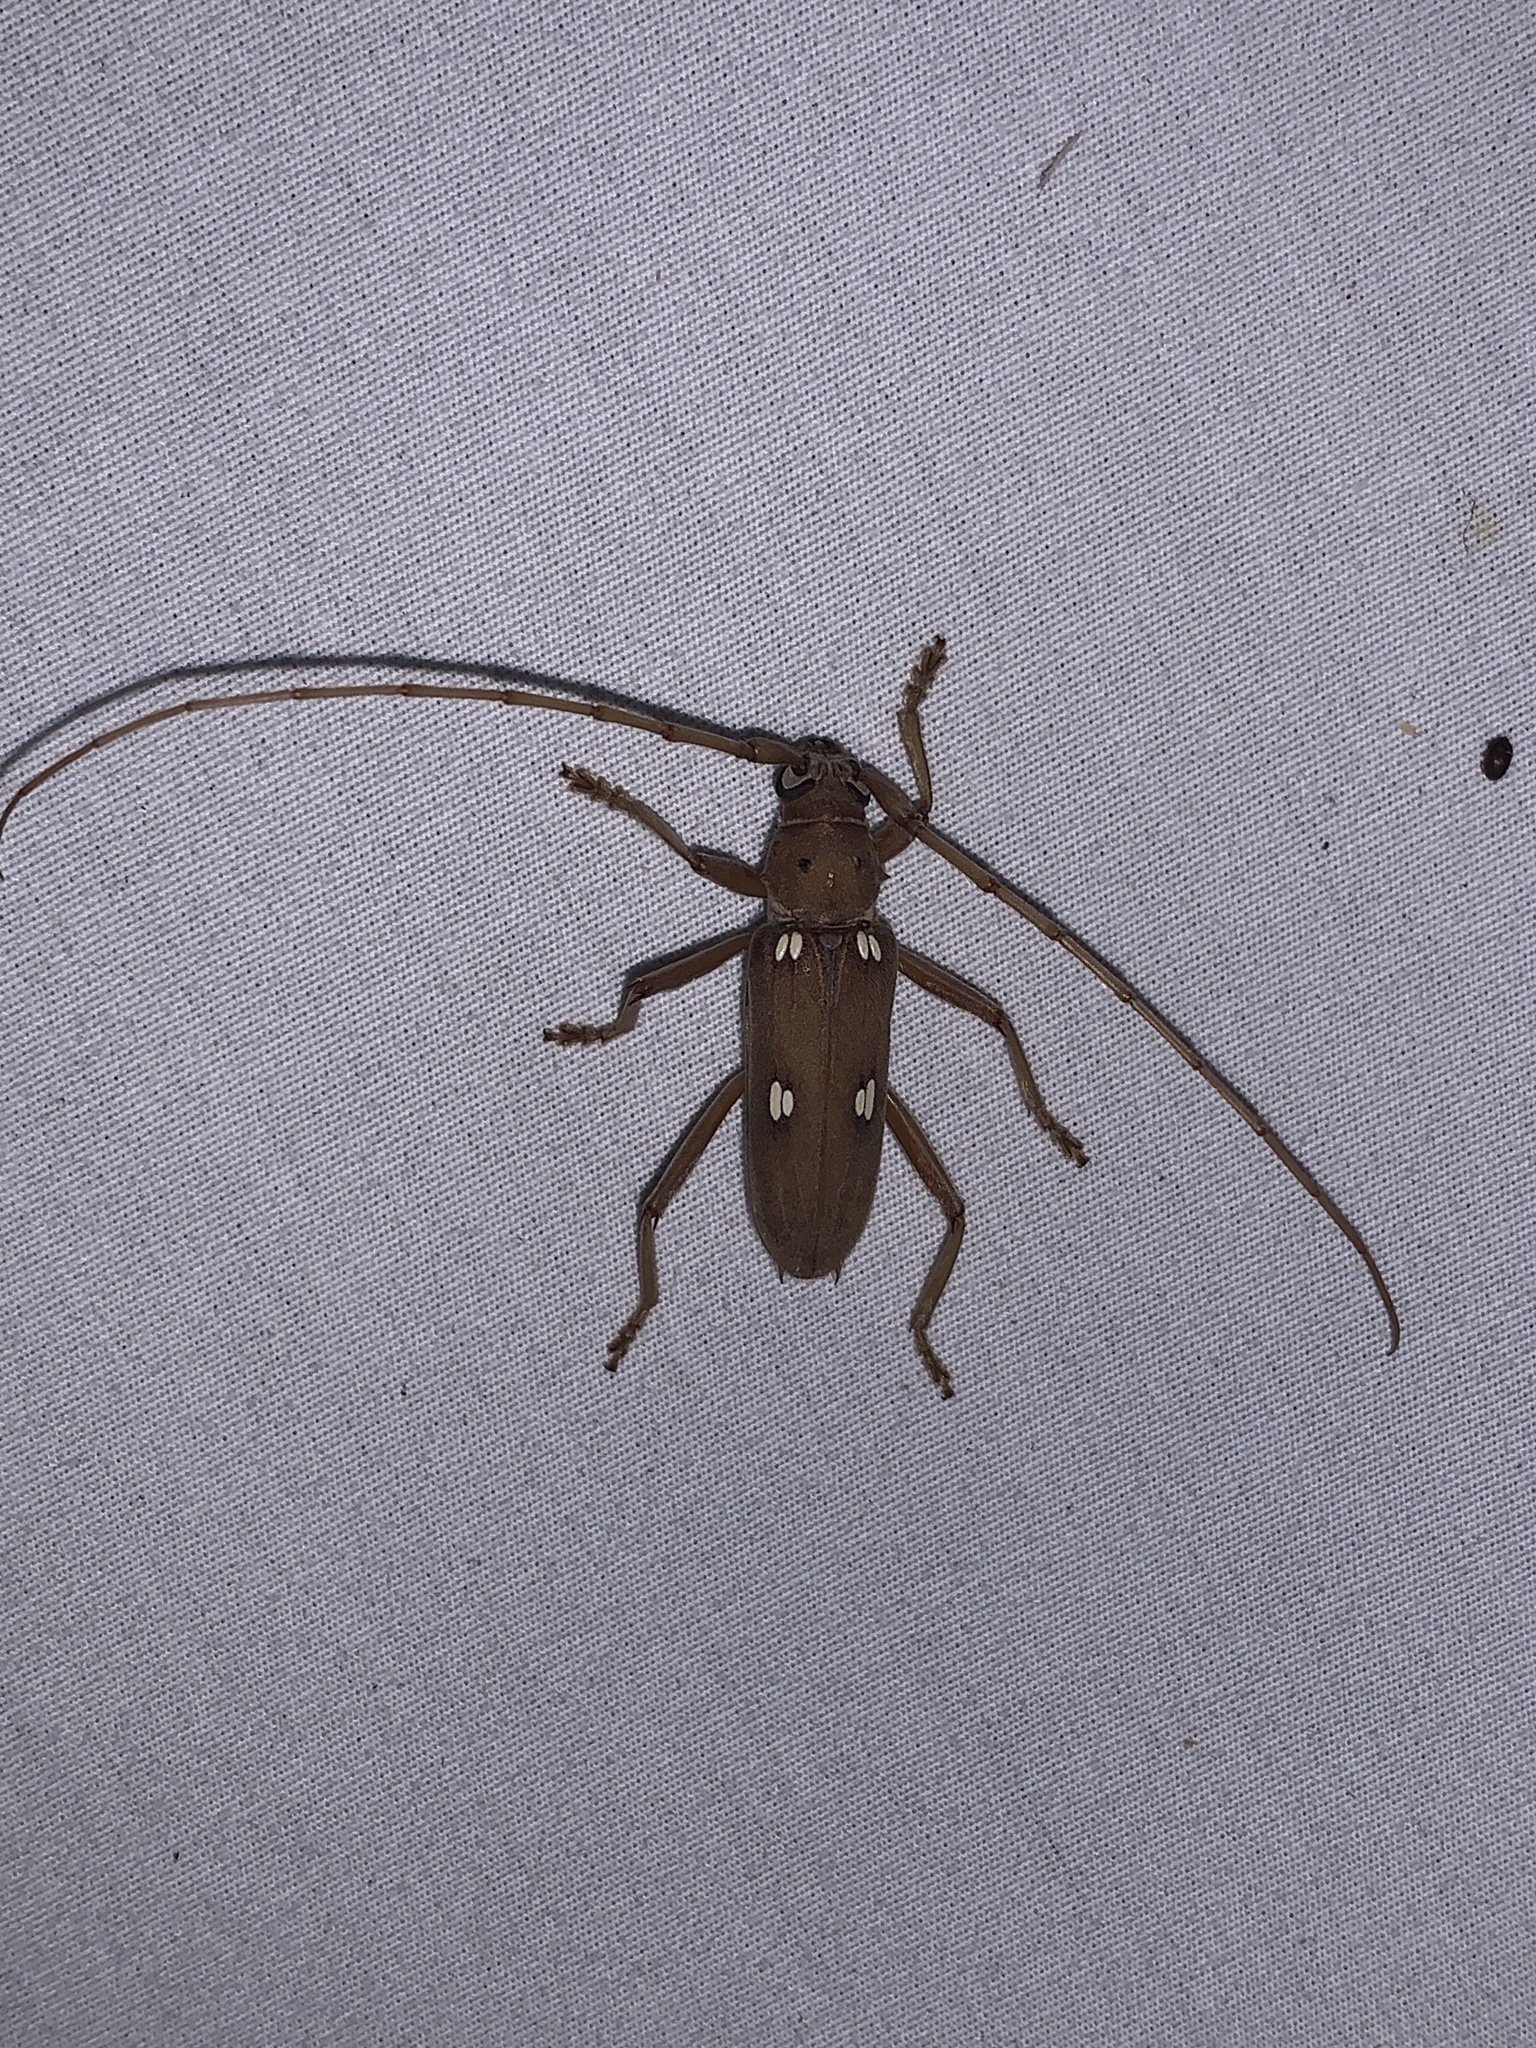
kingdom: Animalia
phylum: Arthropoda
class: Insecta
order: Coleoptera
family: Cerambycidae
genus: Eburia
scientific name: Eburia quadrigeminata
